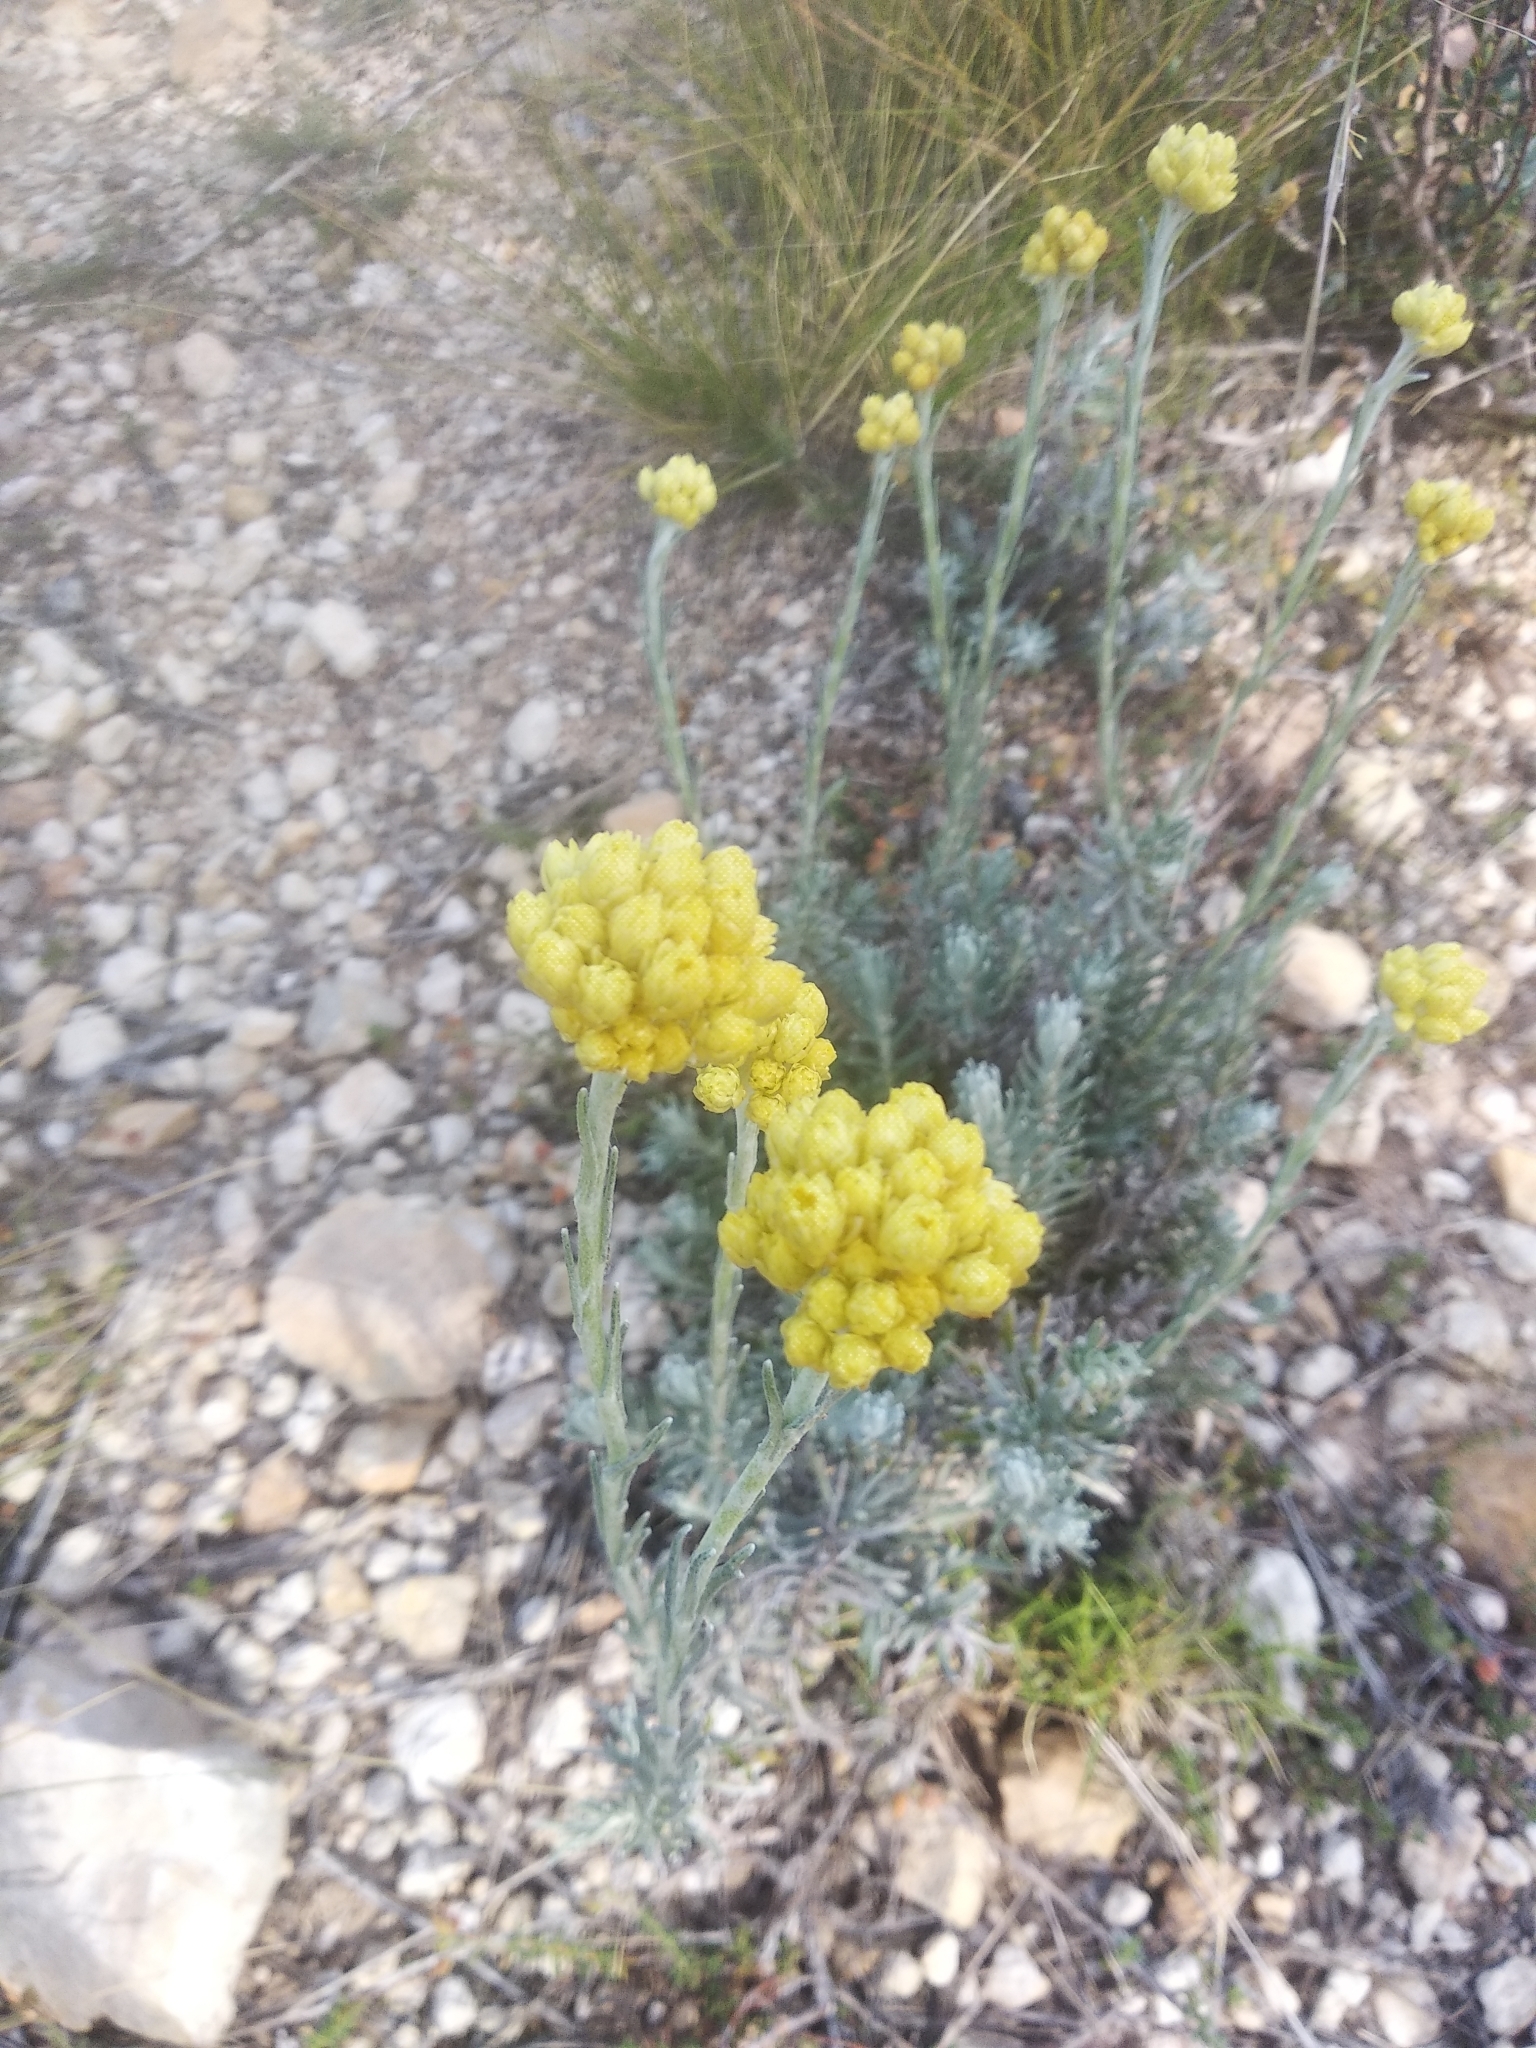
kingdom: Plantae
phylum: Tracheophyta
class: Magnoliopsida
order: Asterales
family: Asteraceae
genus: Helichrysum
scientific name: Helichrysum stoechas
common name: Goldilocks
